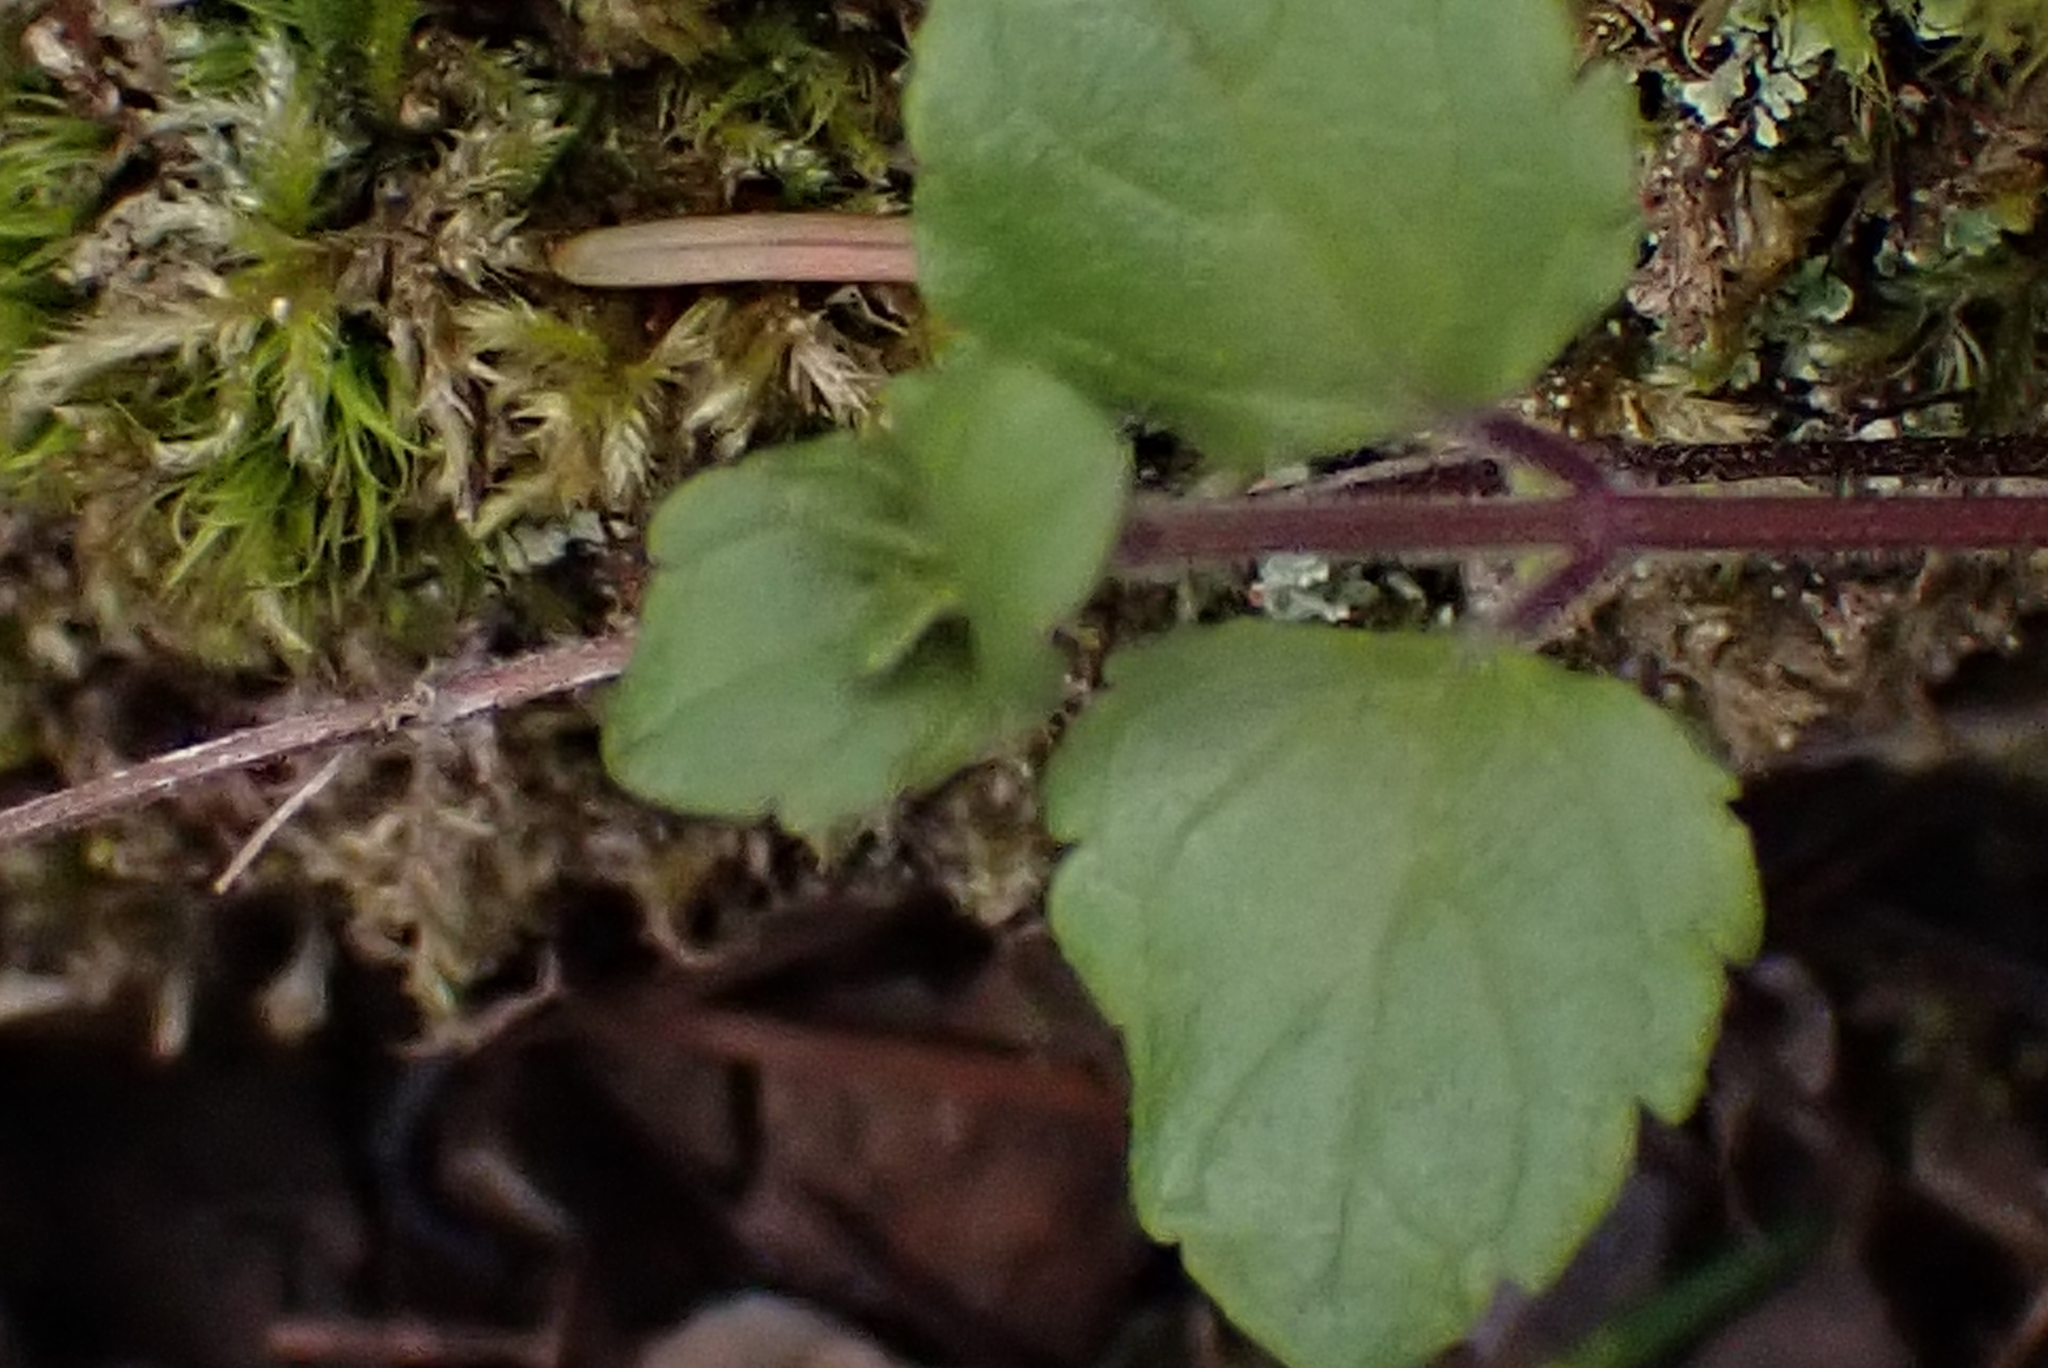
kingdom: Plantae
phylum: Tracheophyta
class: Magnoliopsida
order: Lamiales
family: Lamiaceae
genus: Micromeria
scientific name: Micromeria douglasii
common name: Yerba buena
